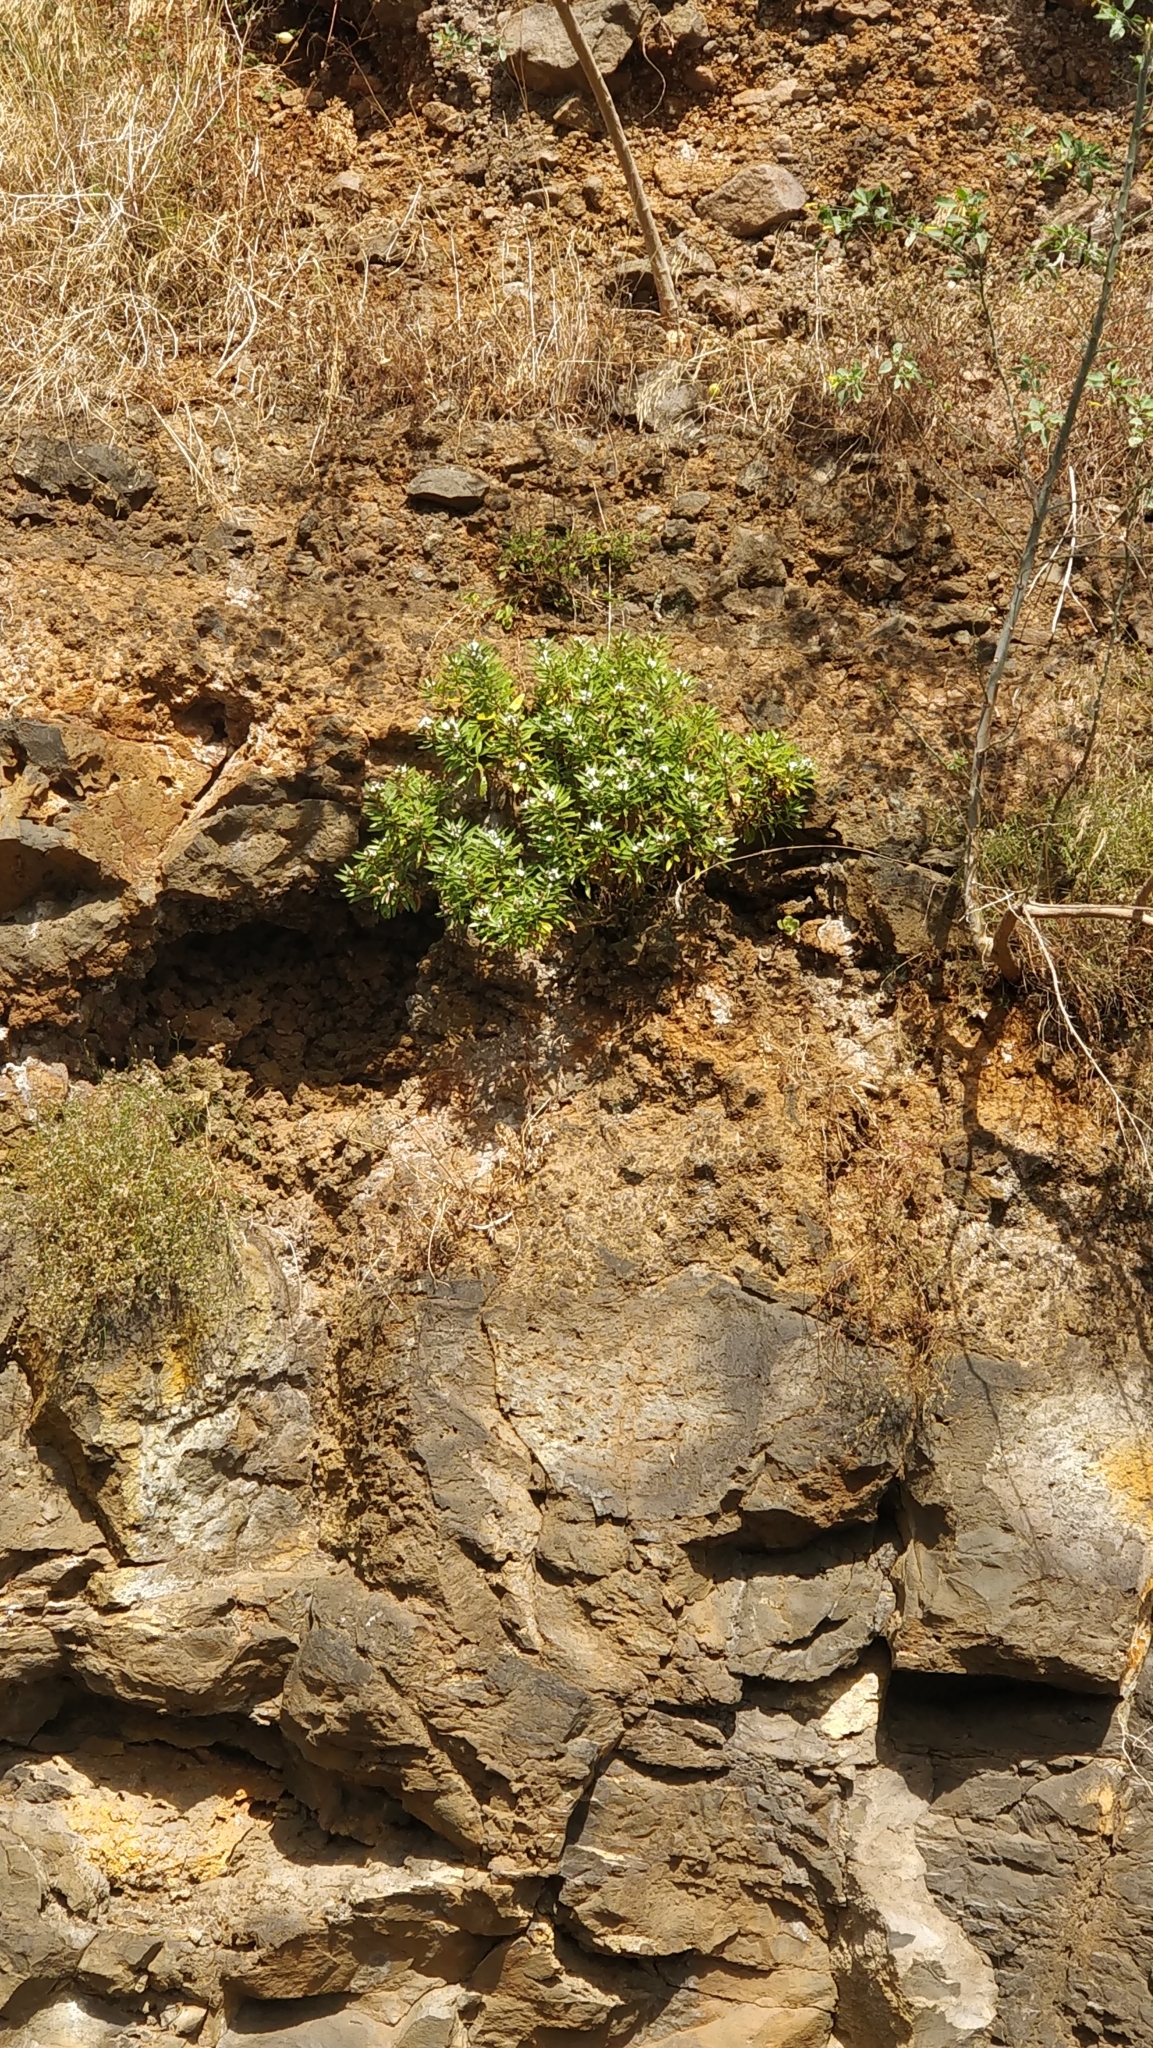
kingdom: Plantae
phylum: Tracheophyta
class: Magnoliopsida
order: Lamiales
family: Plantaginaceae
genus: Globularia
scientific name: Globularia salicina
